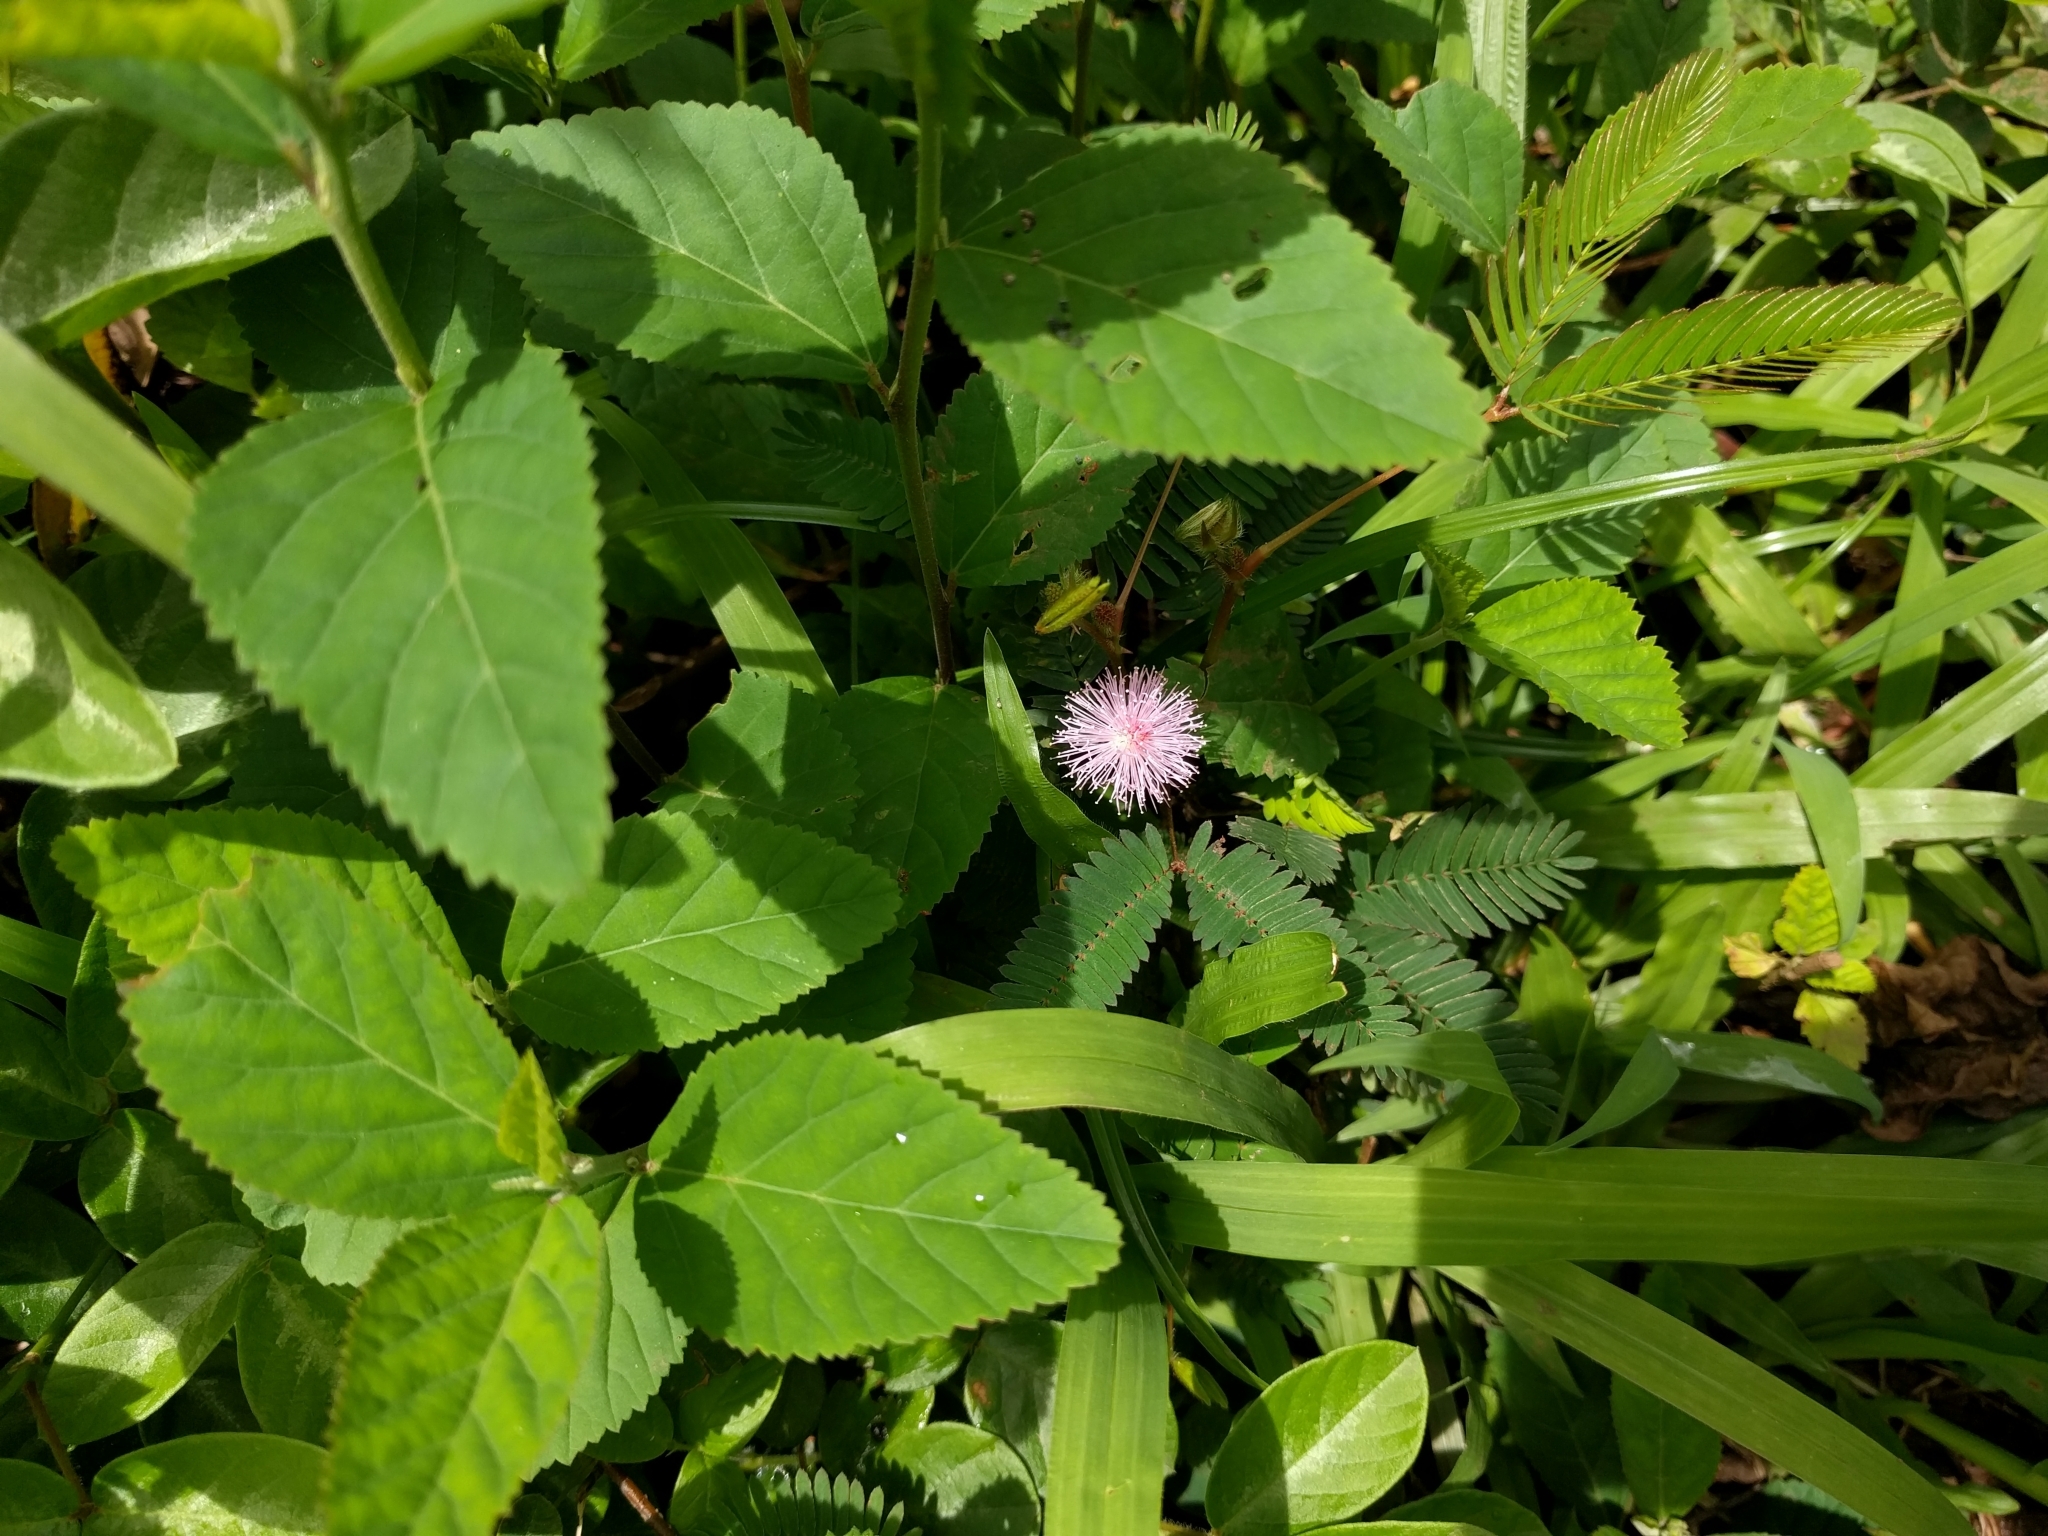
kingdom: Plantae
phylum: Tracheophyta
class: Magnoliopsida
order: Fabales
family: Fabaceae
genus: Mimosa
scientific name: Mimosa pudica
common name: Sensitive plant
